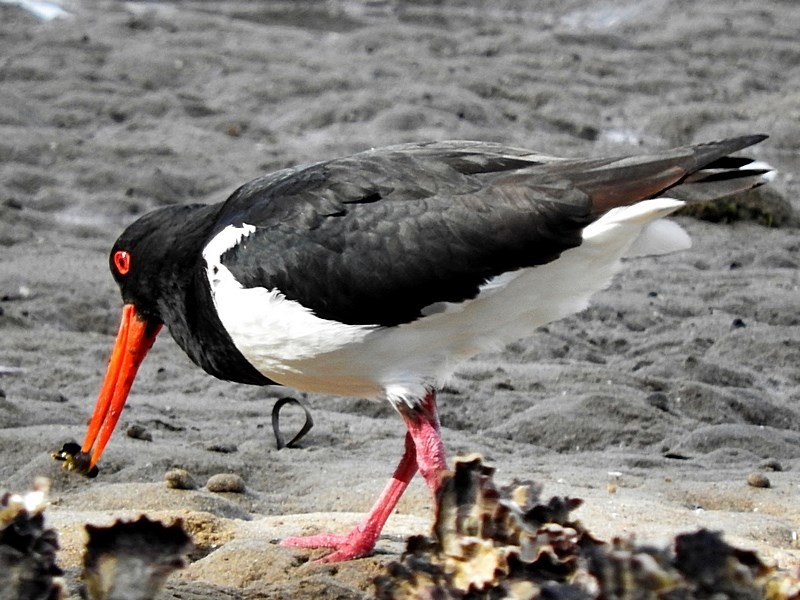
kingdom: Animalia
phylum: Chordata
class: Aves
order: Charadriiformes
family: Haematopodidae
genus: Haematopus
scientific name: Haematopus longirostris
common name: Pied oystercatcher
